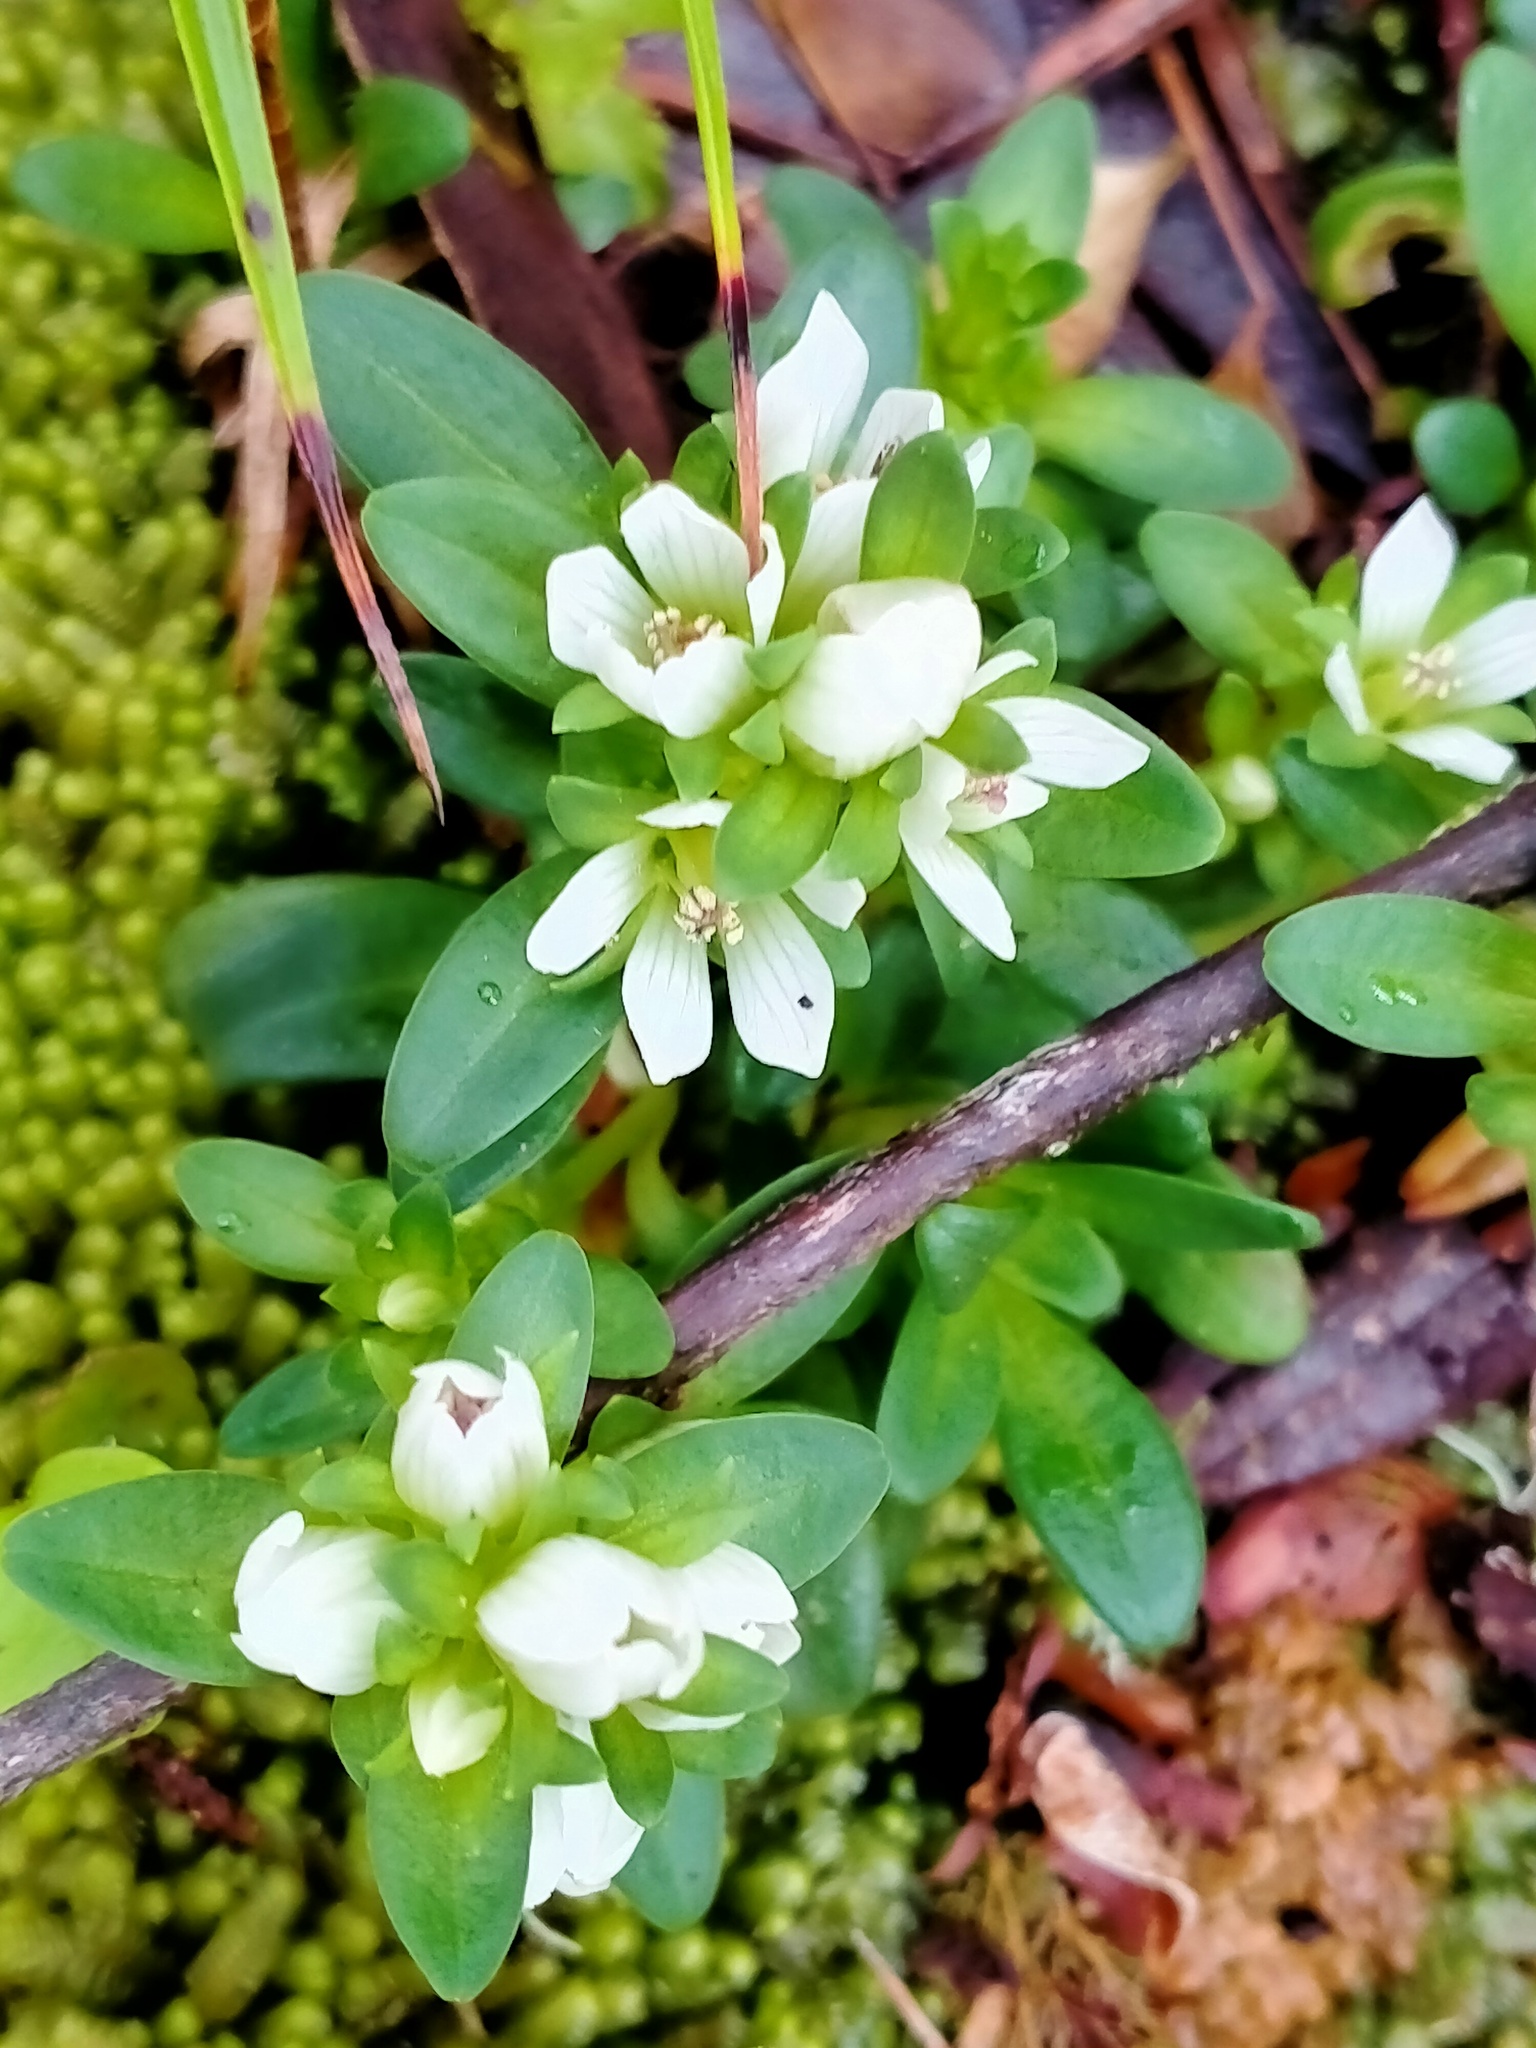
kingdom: Plantae
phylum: Tracheophyta
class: Magnoliopsida
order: Gentianales
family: Gentianaceae
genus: Gentianella
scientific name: Gentianella concinna
